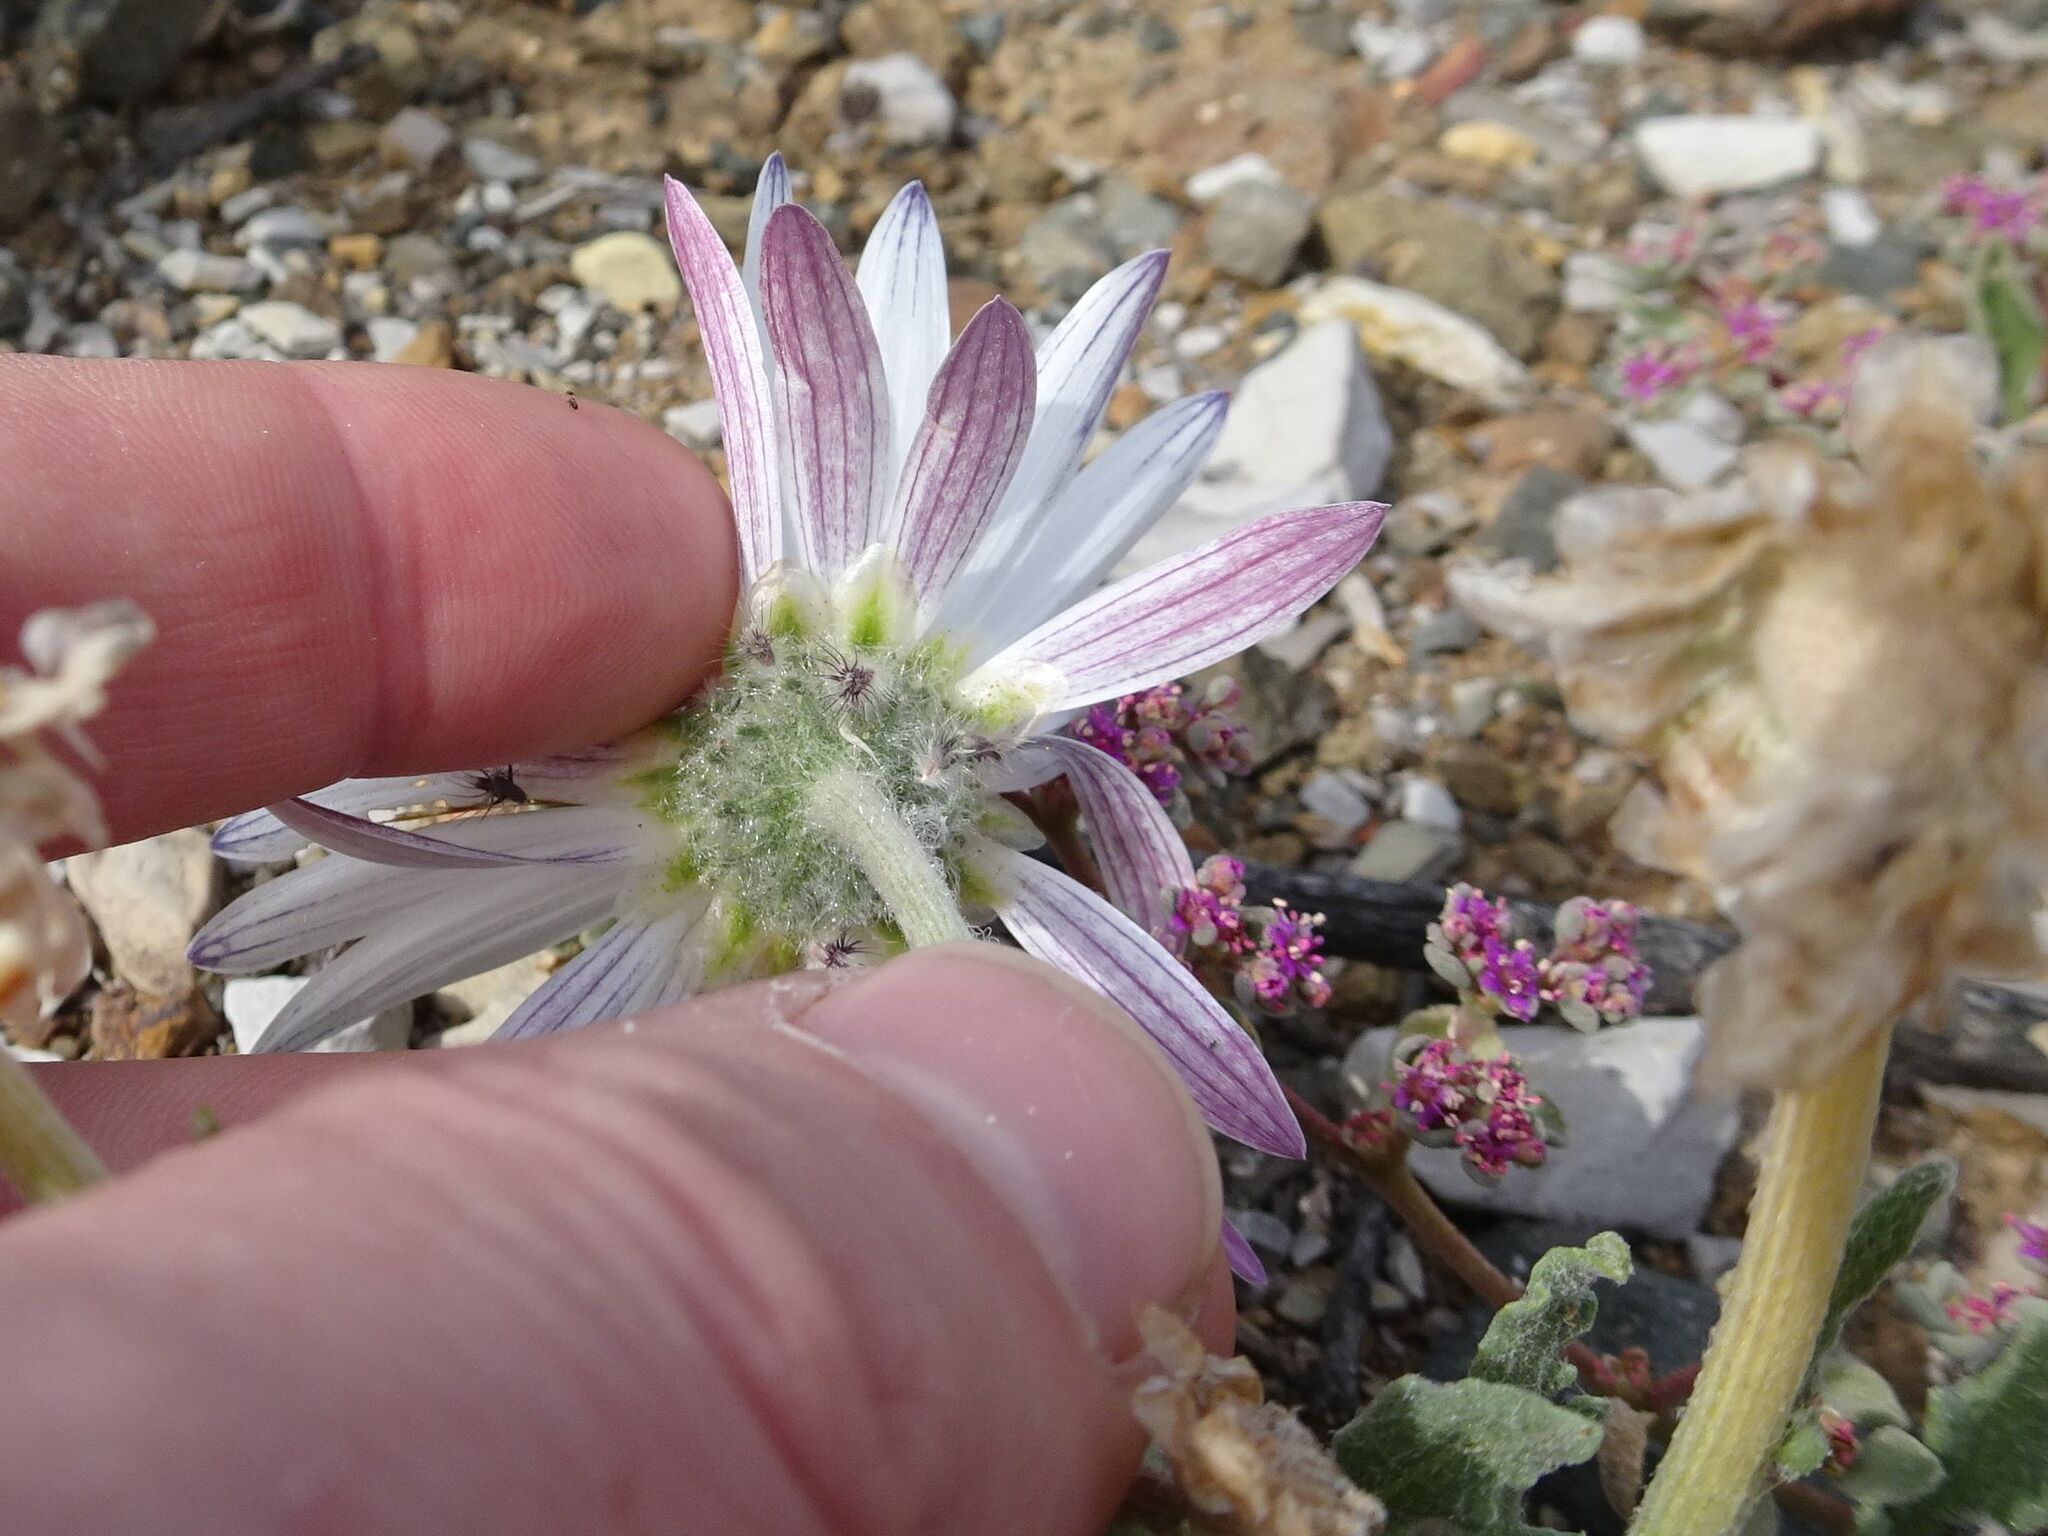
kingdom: Plantae
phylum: Tracheophyta
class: Magnoliopsida
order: Asterales
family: Asteraceae
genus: Arctotis
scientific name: Arctotis leiocarpa
